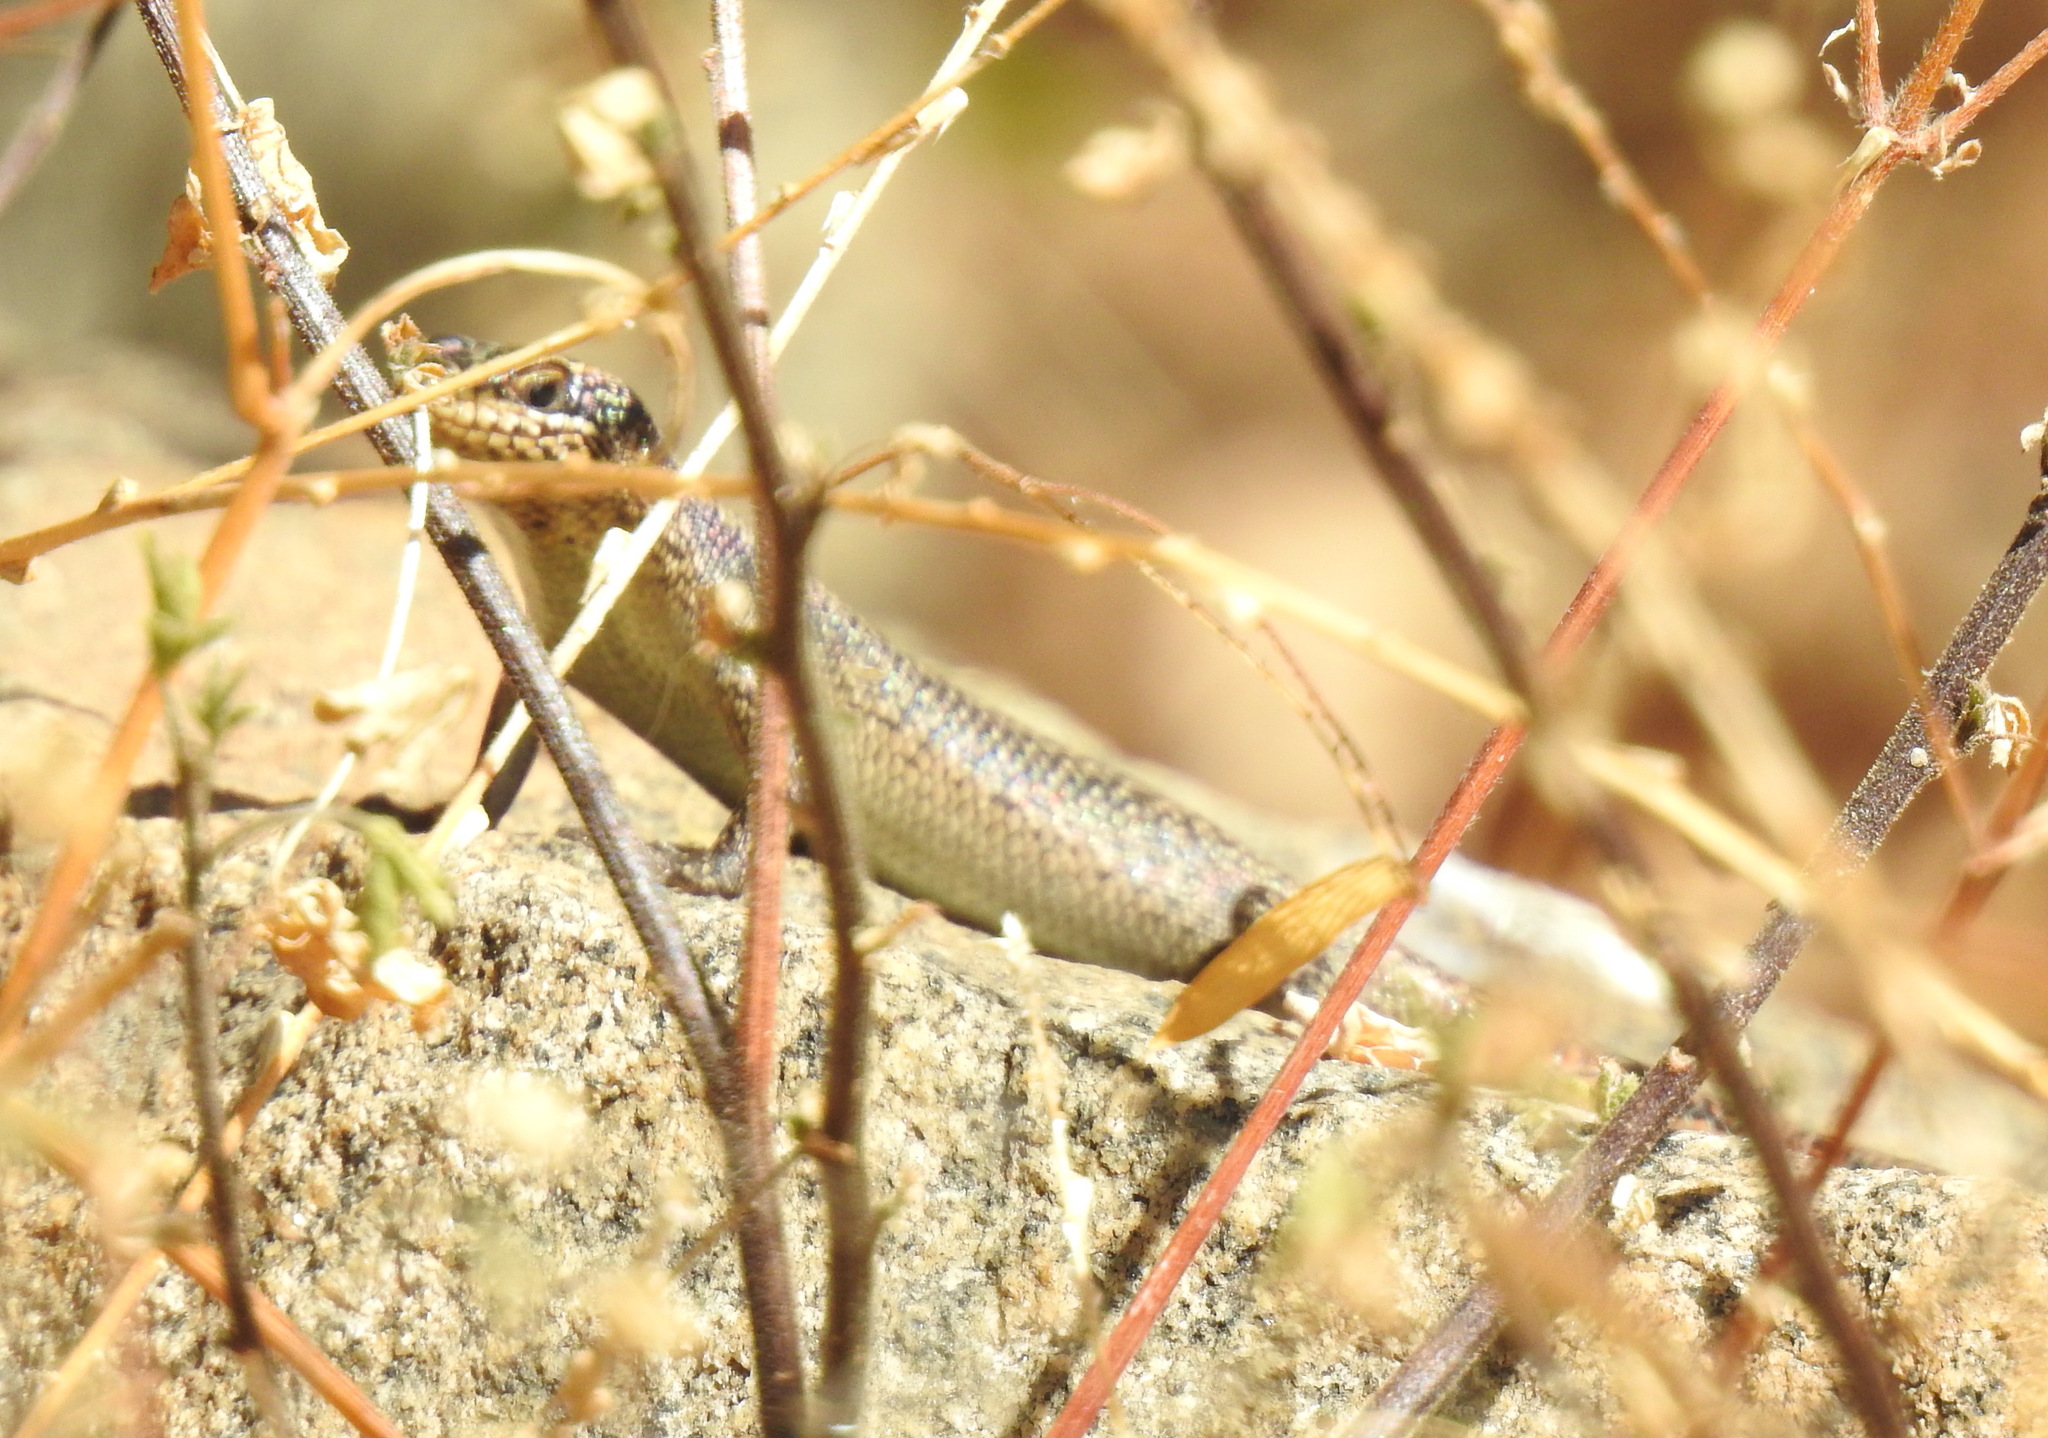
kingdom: Animalia
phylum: Chordata
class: Squamata
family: Scincidae
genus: Trachylepis
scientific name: Trachylepis punctatissima
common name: Montane speckled skink
